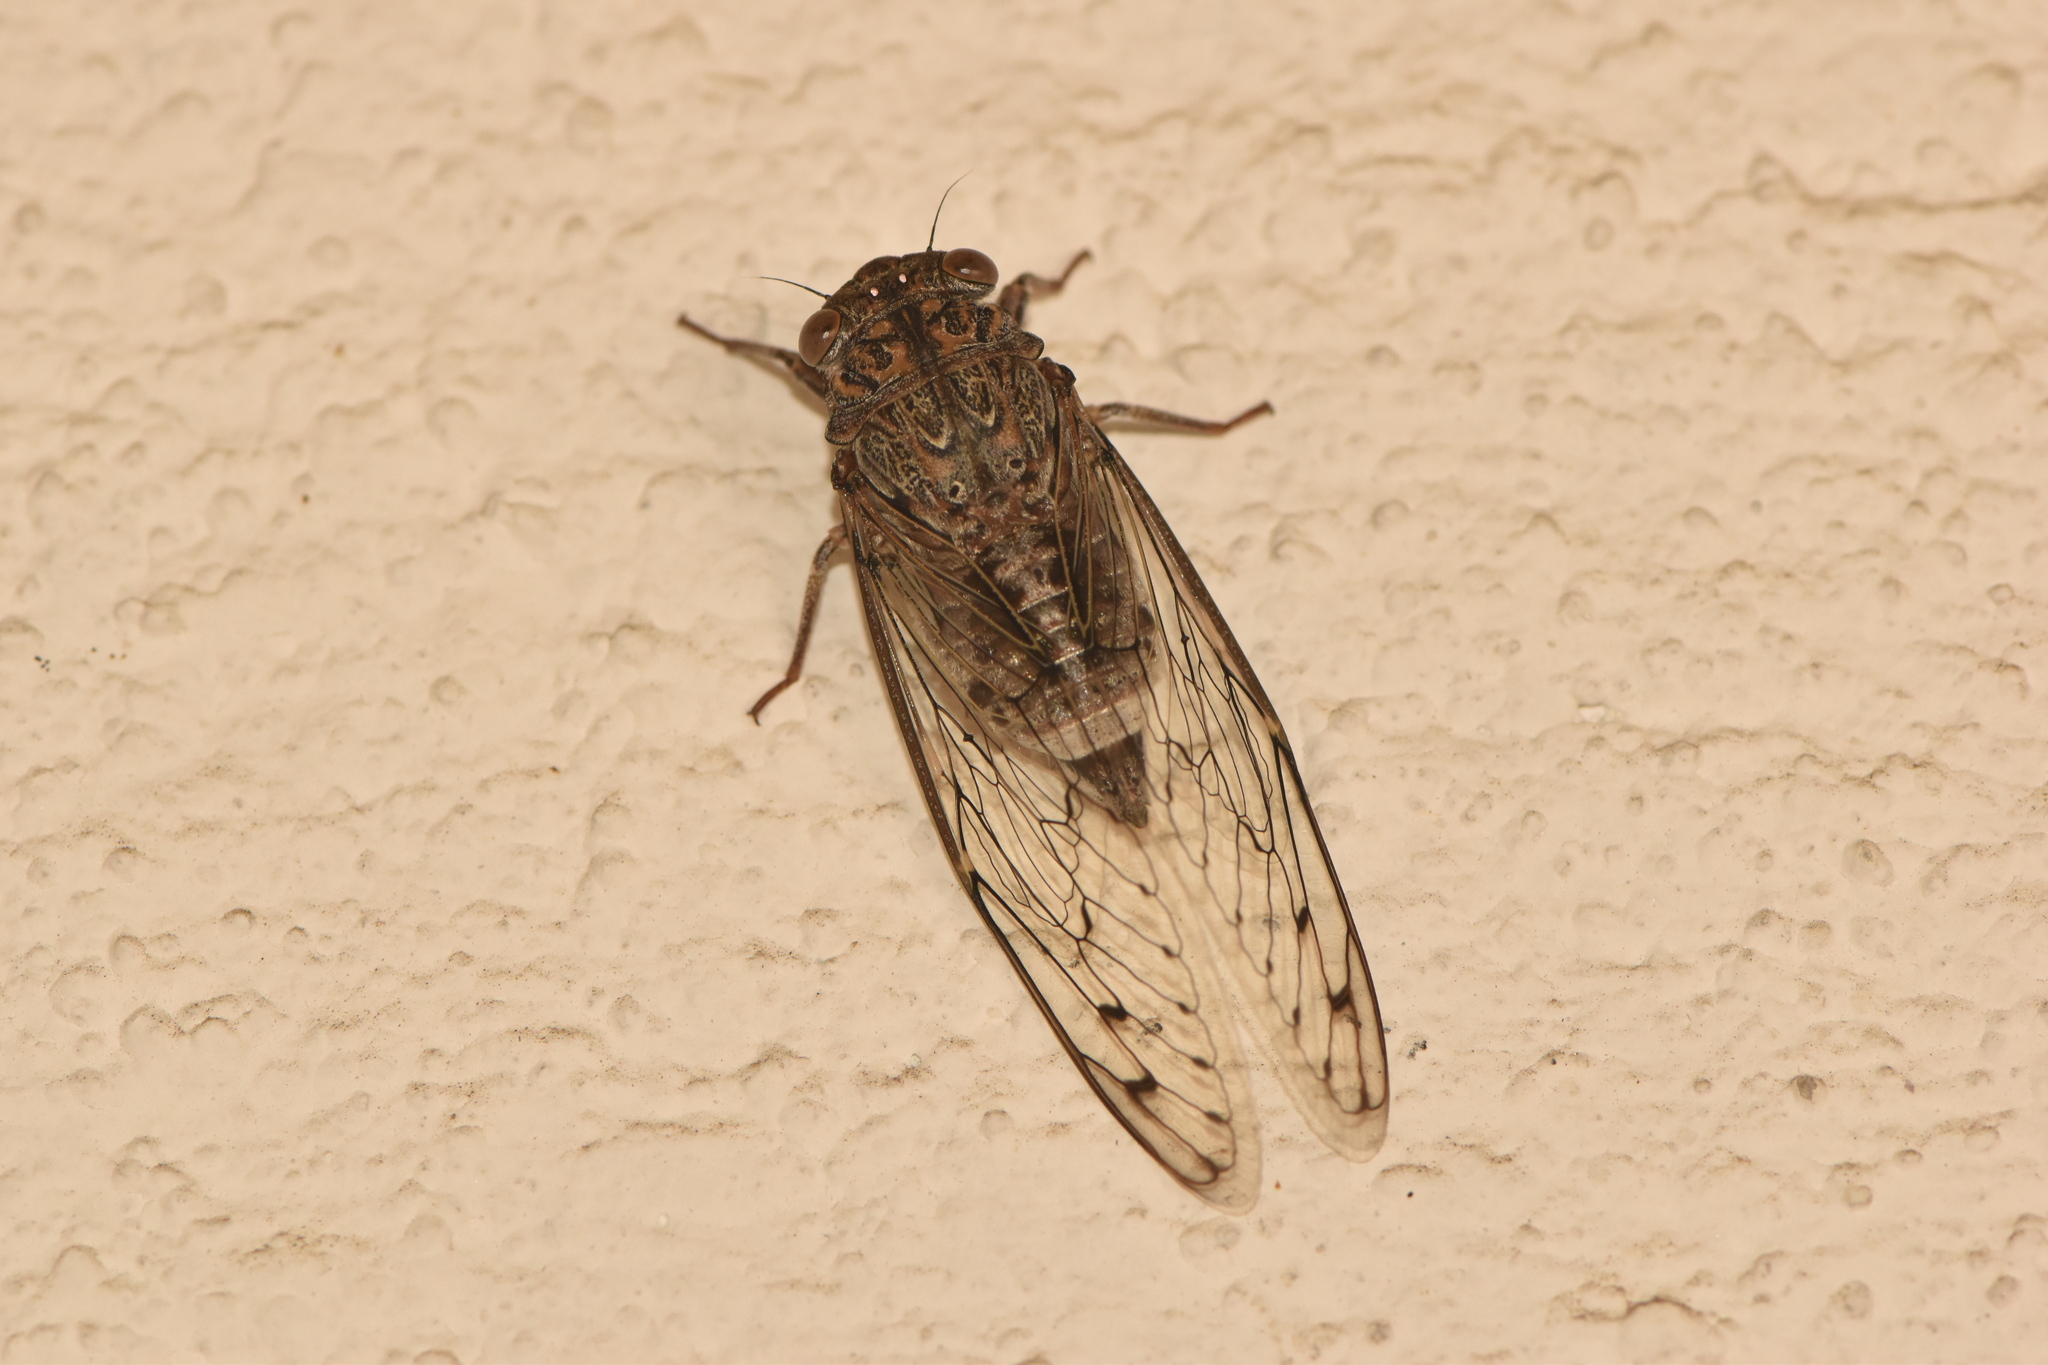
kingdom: Animalia
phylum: Arthropoda
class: Insecta
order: Hemiptera
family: Cicadidae
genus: Cicada
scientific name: Cicada barbara
